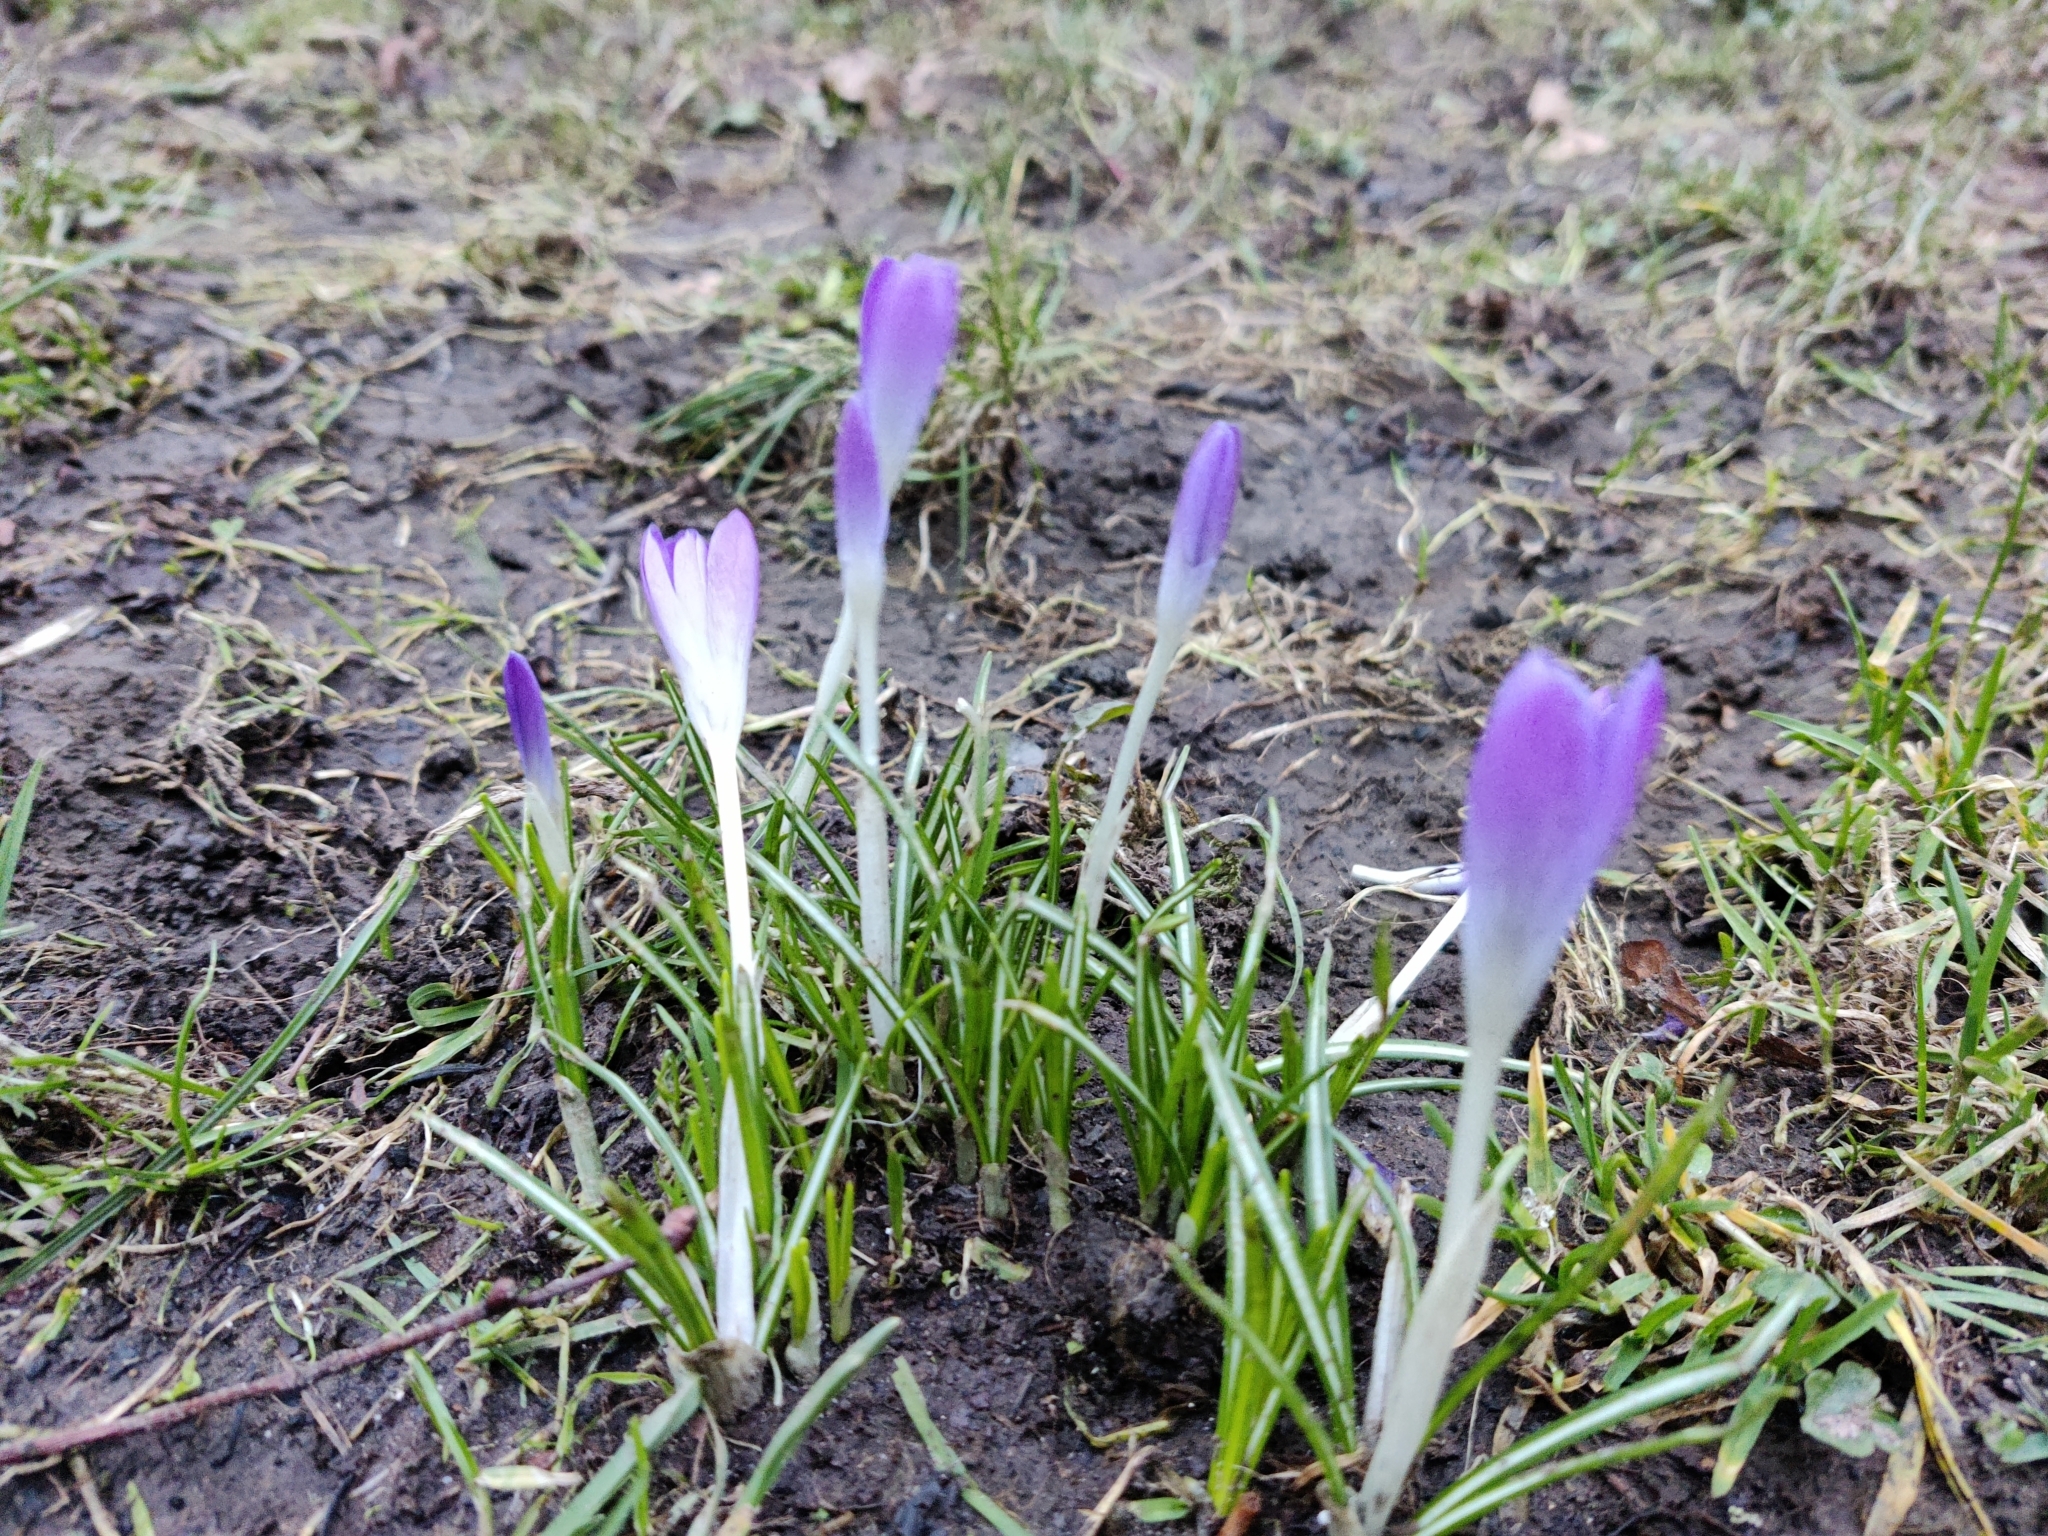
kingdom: Plantae
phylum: Tracheophyta
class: Liliopsida
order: Asparagales
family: Iridaceae
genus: Crocus
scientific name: Crocus tommasinianus
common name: Early crocus
